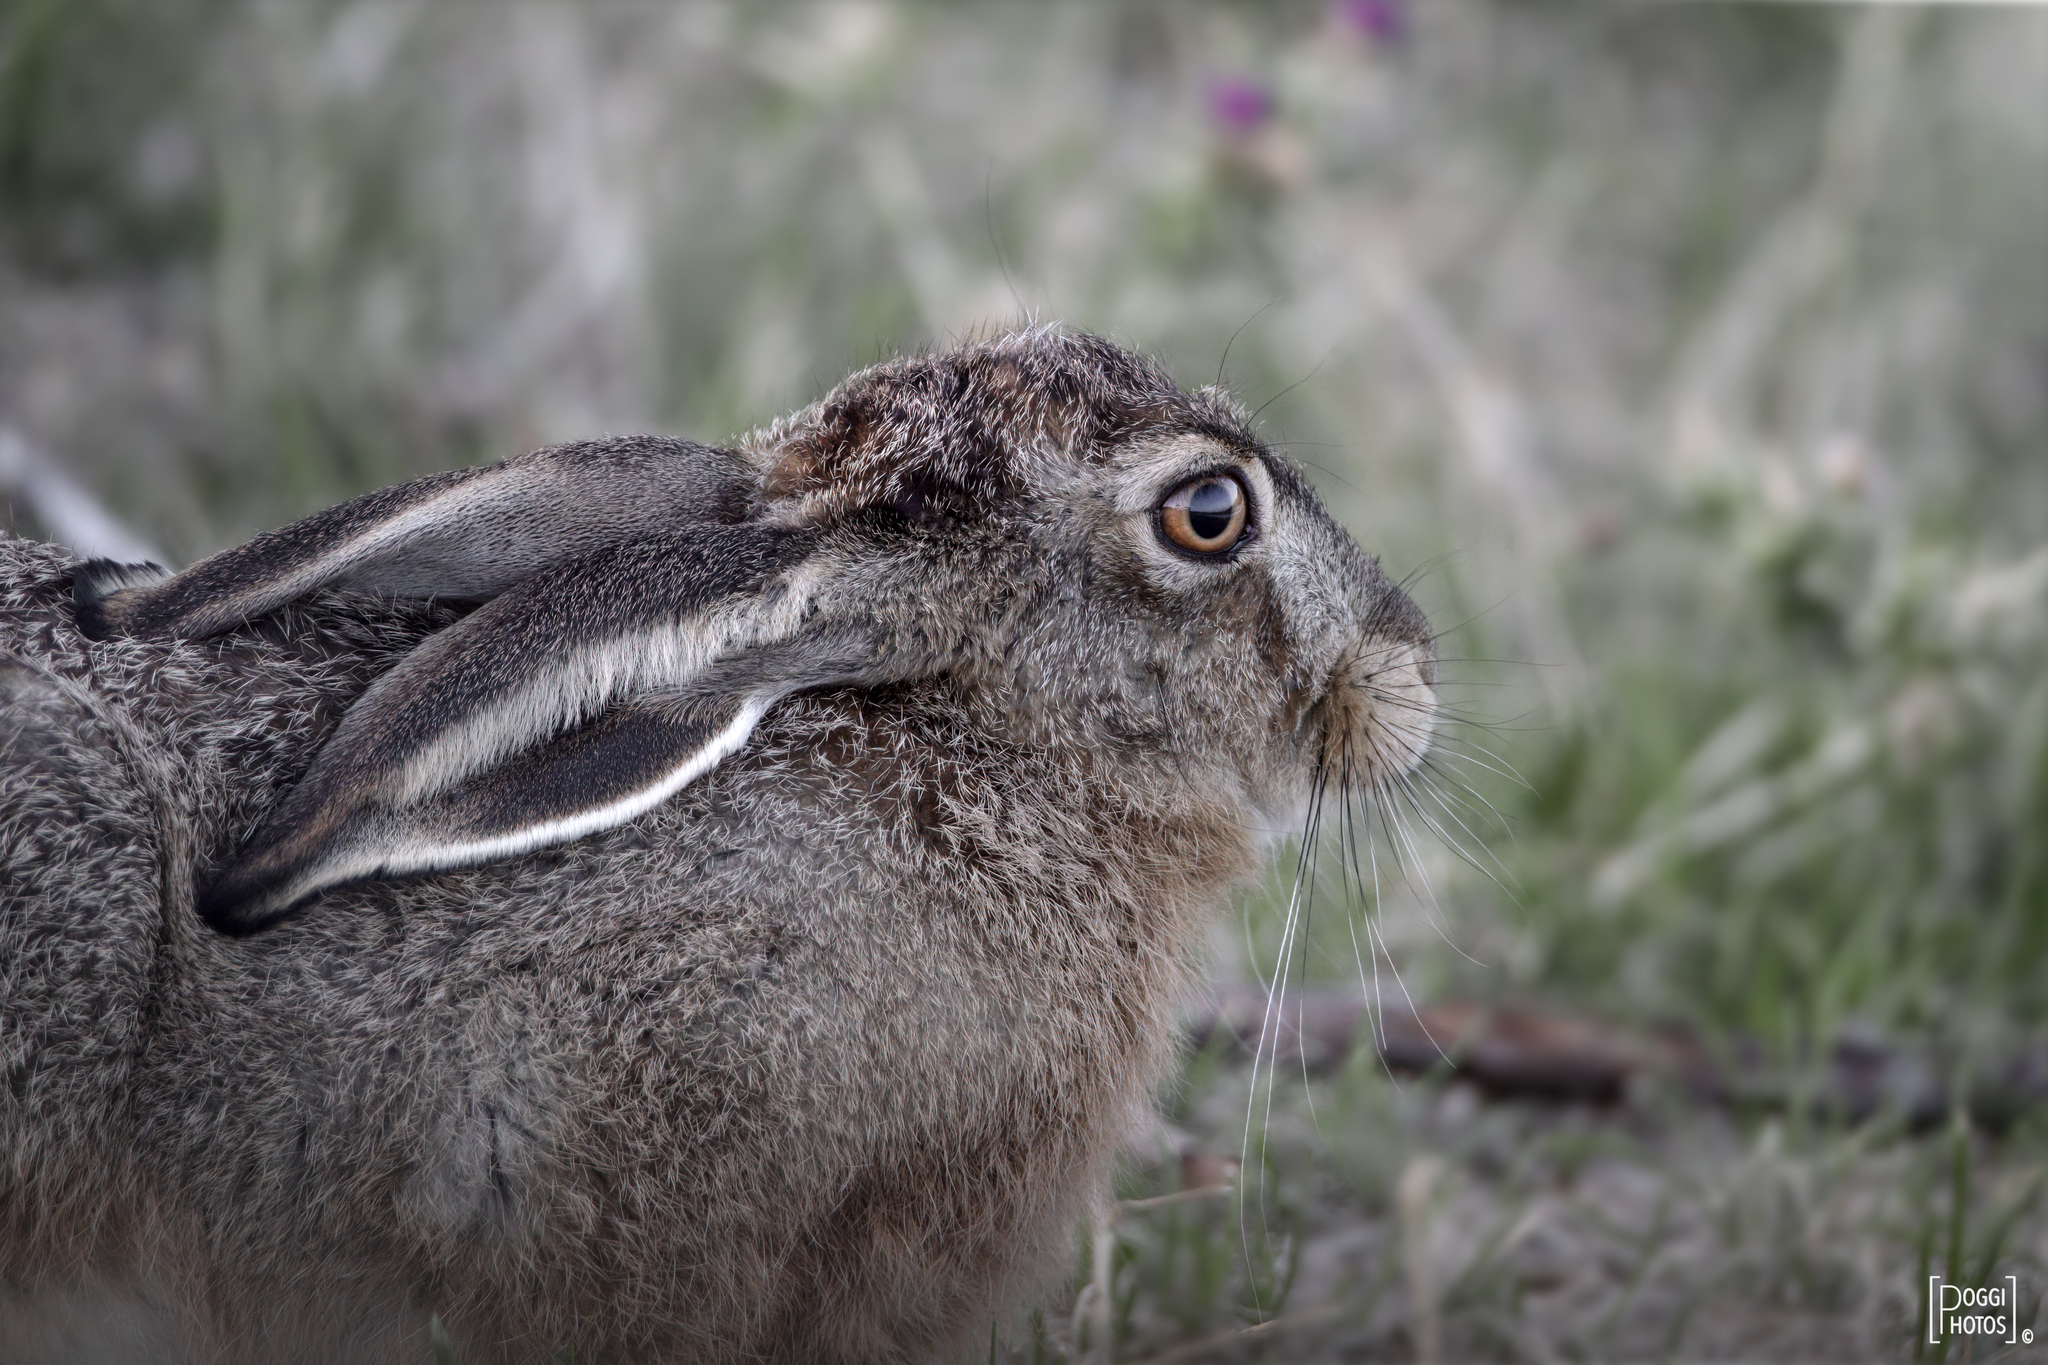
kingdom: Animalia
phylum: Chordata
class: Mammalia
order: Lagomorpha
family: Leporidae
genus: Lepus
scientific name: Lepus europaeus
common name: European hare
